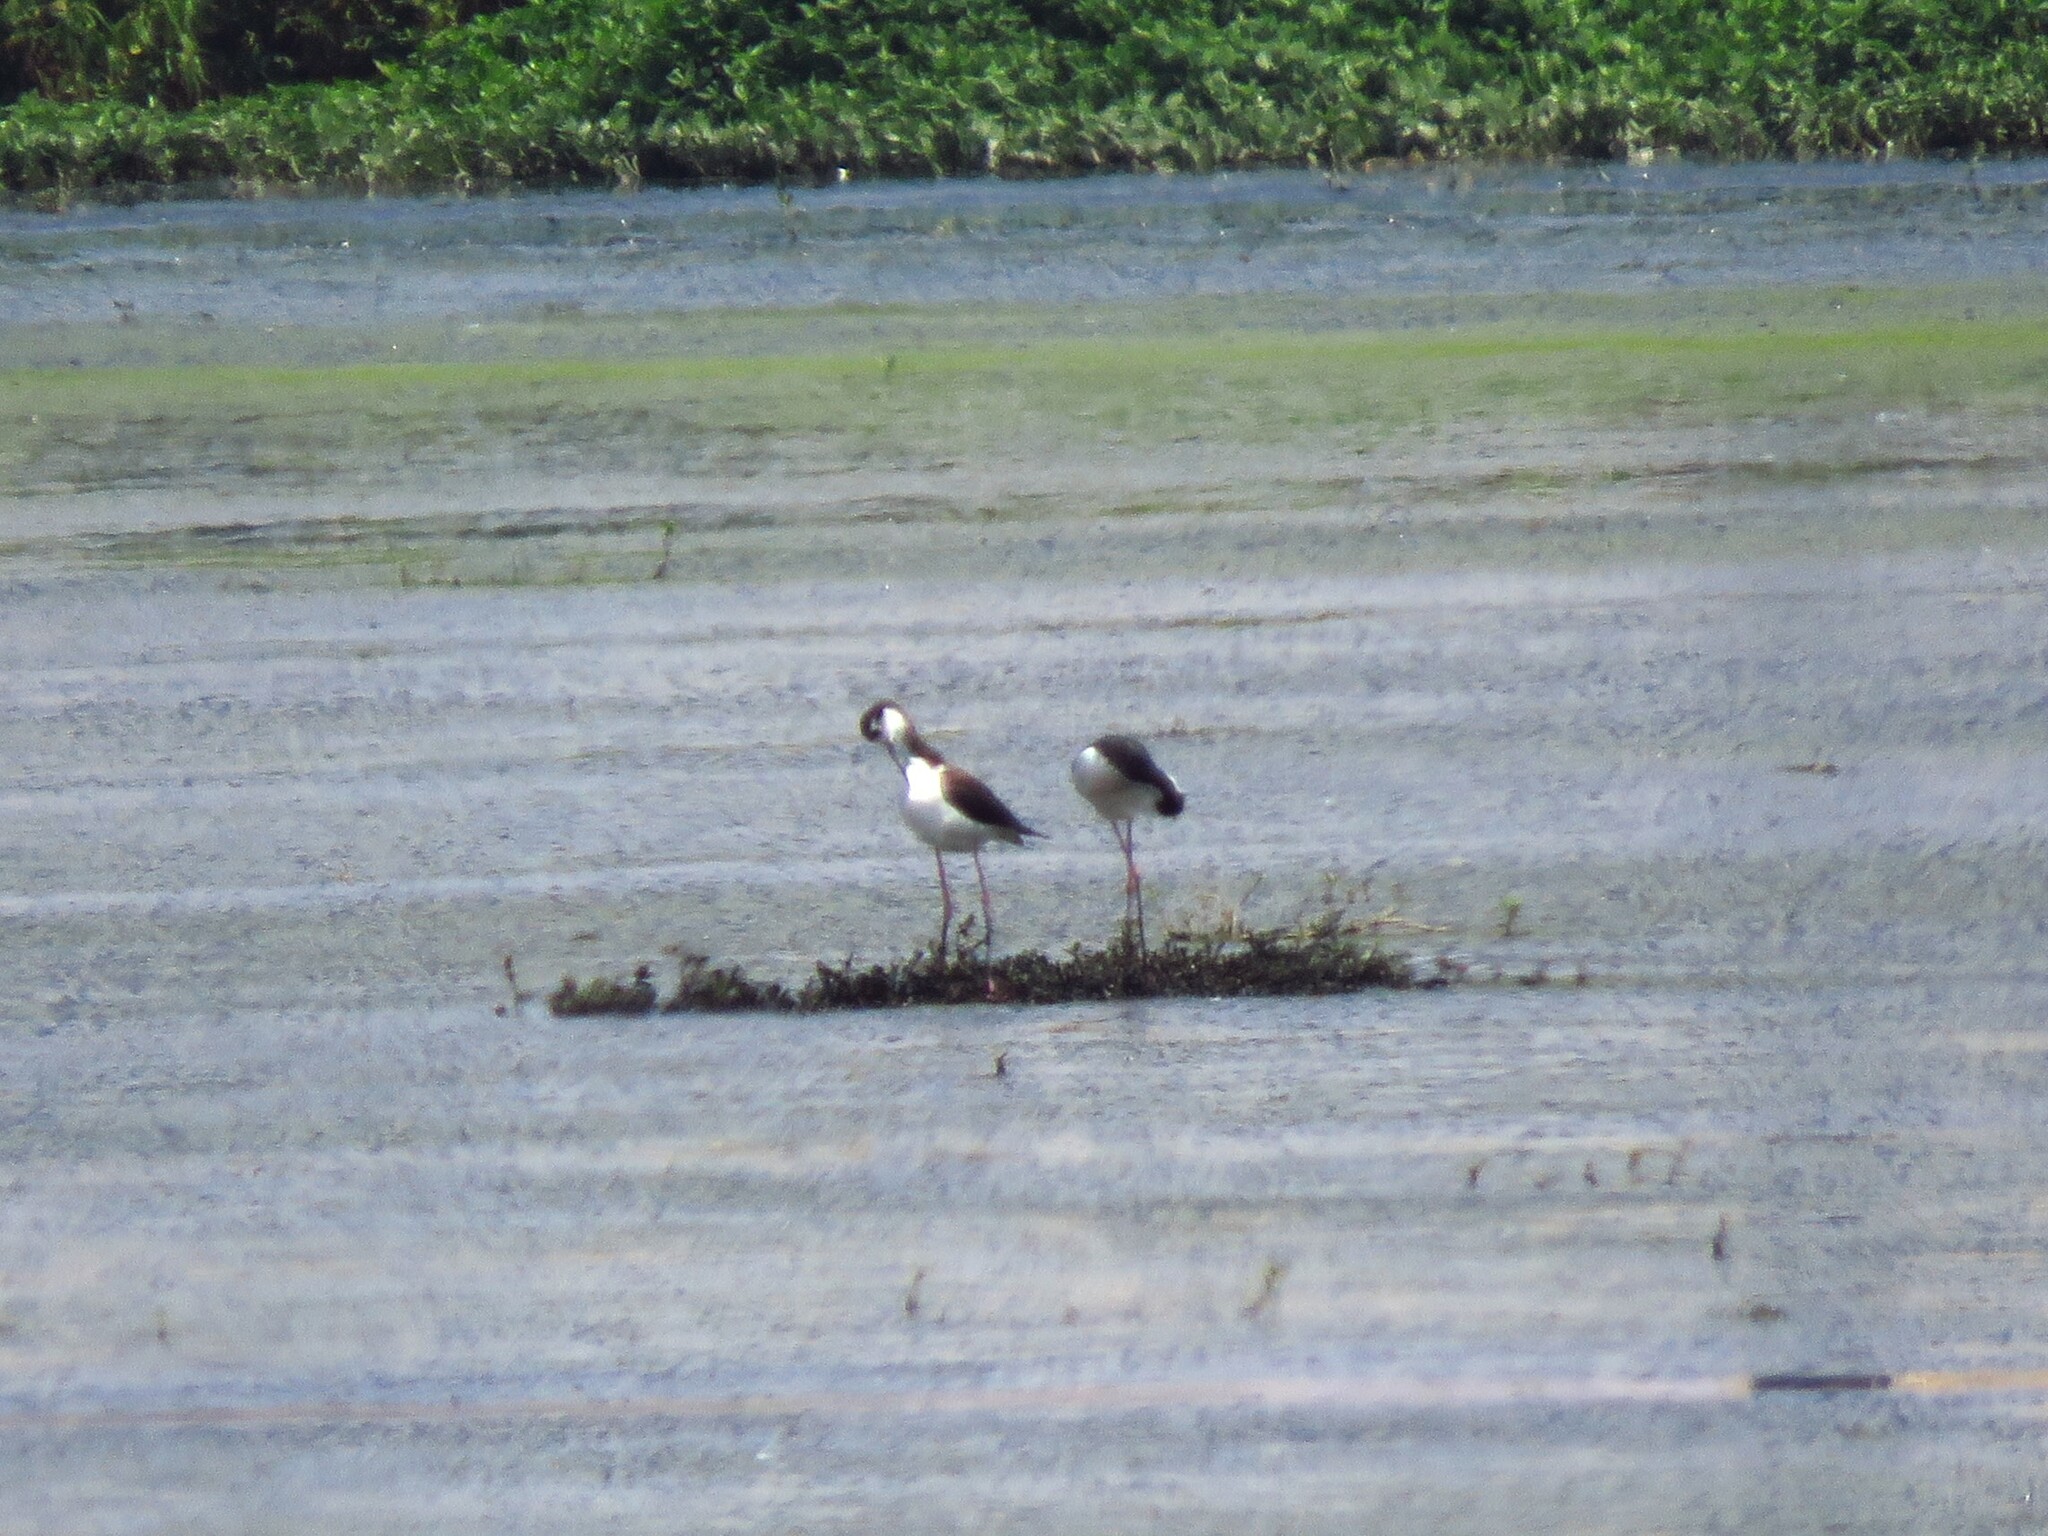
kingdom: Animalia
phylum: Chordata
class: Aves
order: Charadriiformes
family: Recurvirostridae
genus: Himantopus
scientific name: Himantopus mexicanus
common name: Black-necked stilt
